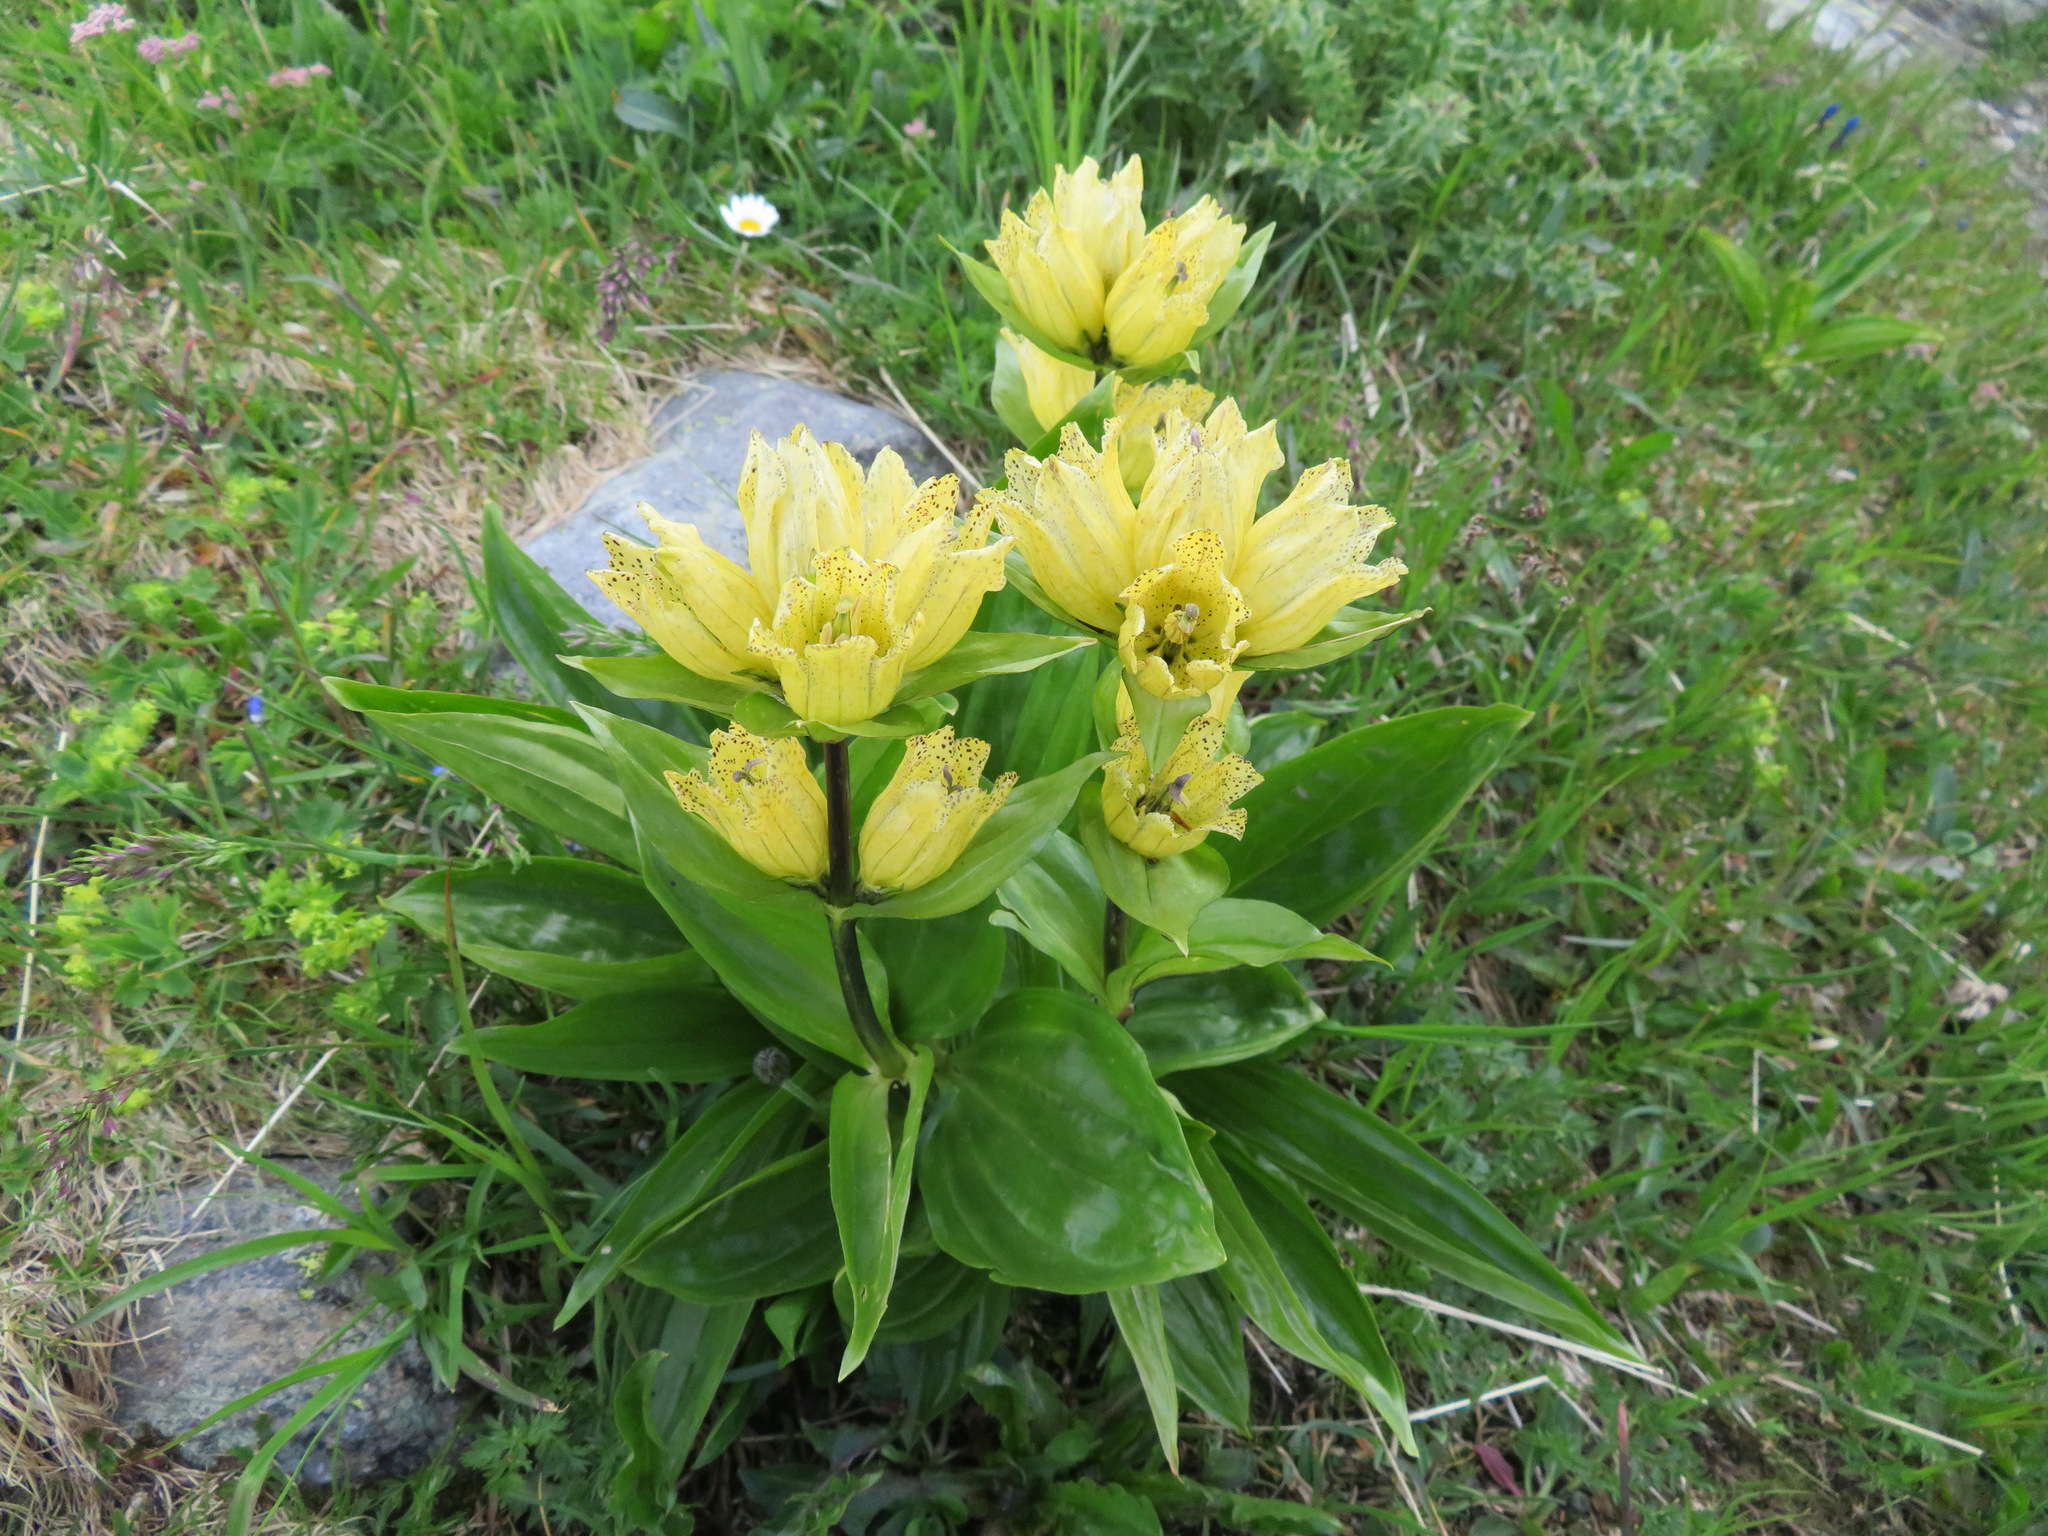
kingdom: Plantae
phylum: Tracheophyta
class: Magnoliopsida
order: Gentianales
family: Gentianaceae
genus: Gentiana
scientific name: Gentiana punctata
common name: Spotted gentian
